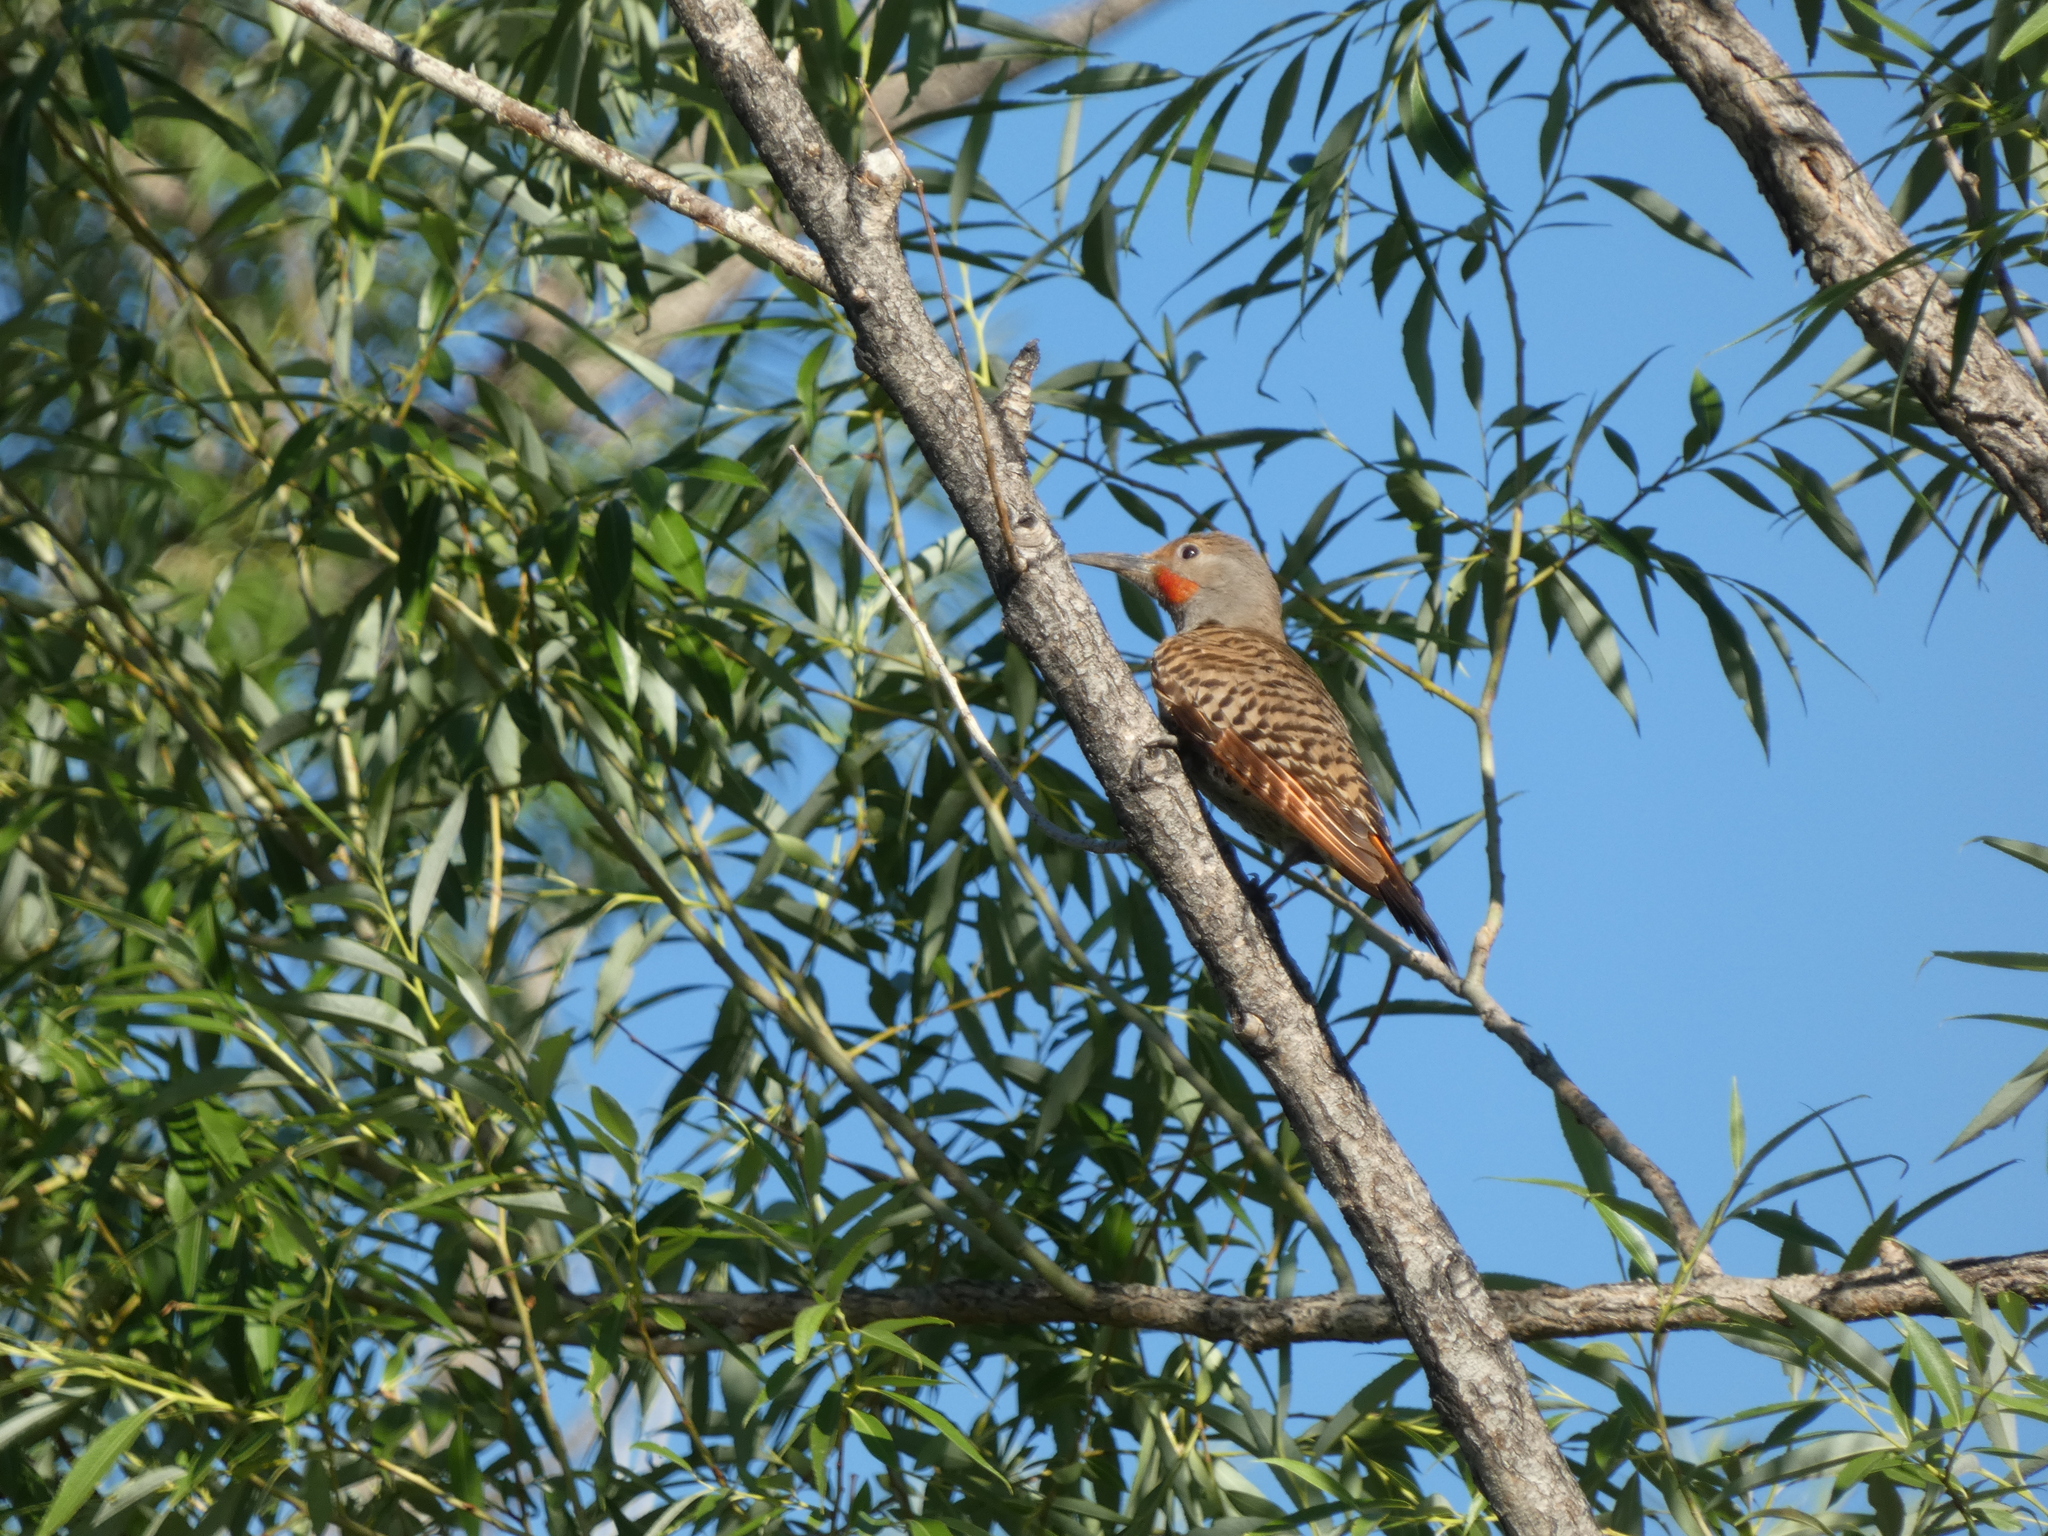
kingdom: Animalia
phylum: Chordata
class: Aves
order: Piciformes
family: Picidae
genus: Colaptes
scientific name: Colaptes auratus
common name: Northern flicker
